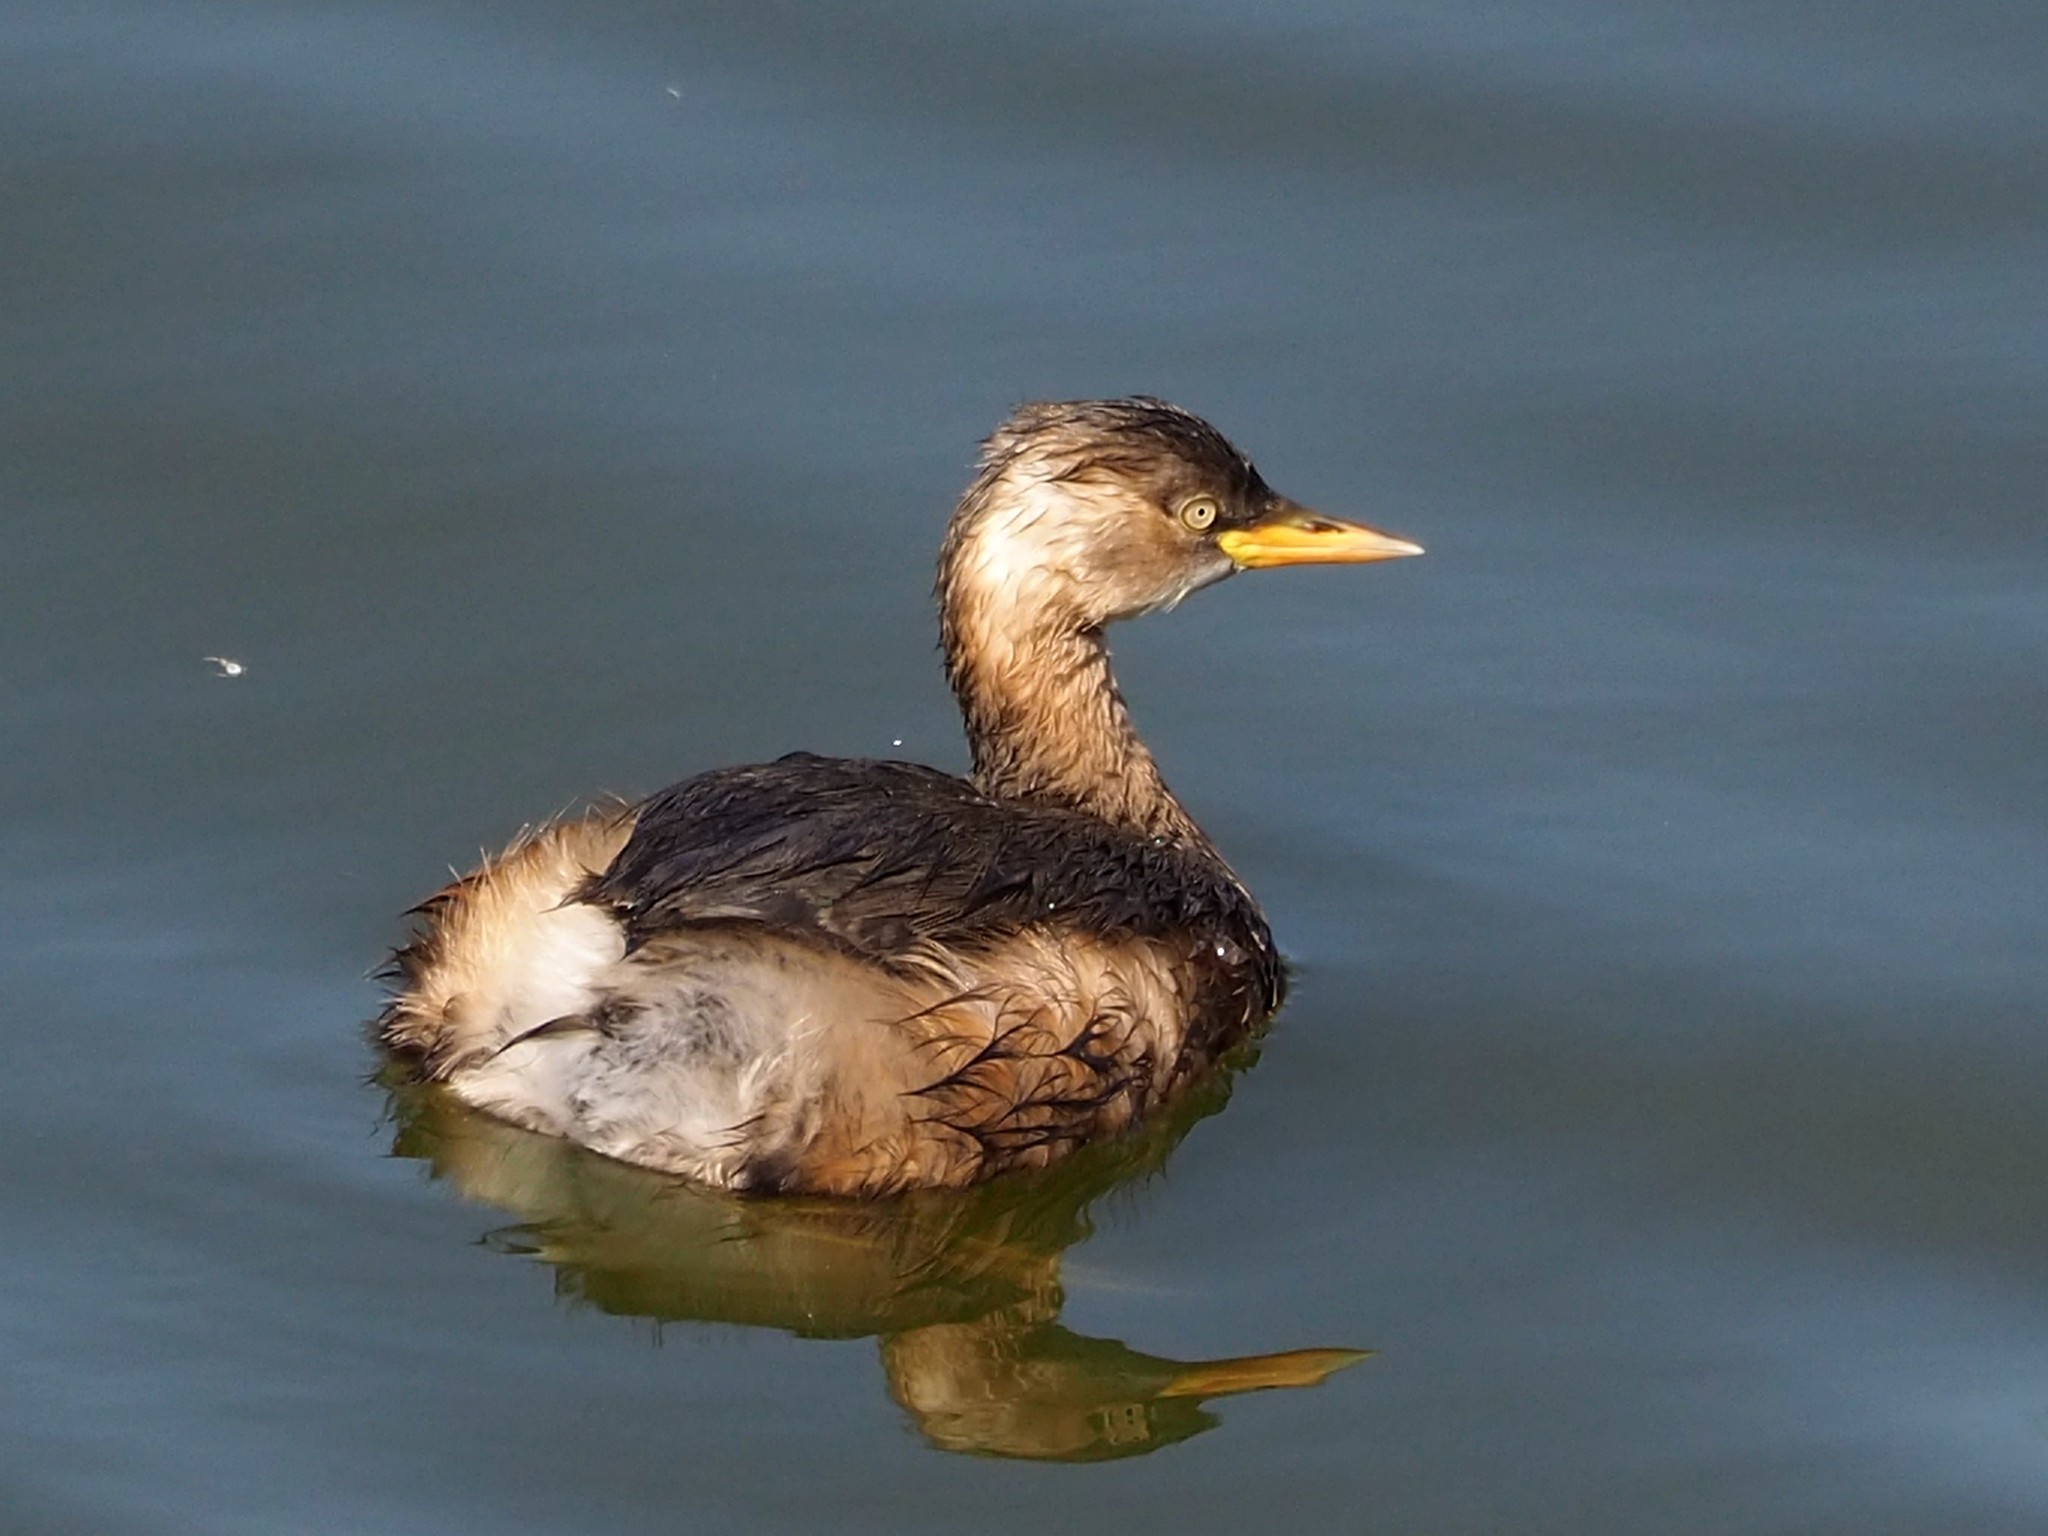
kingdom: Animalia
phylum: Chordata
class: Aves
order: Podicipediformes
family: Podicipedidae
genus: Tachybaptus
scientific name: Tachybaptus ruficollis
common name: Little grebe
